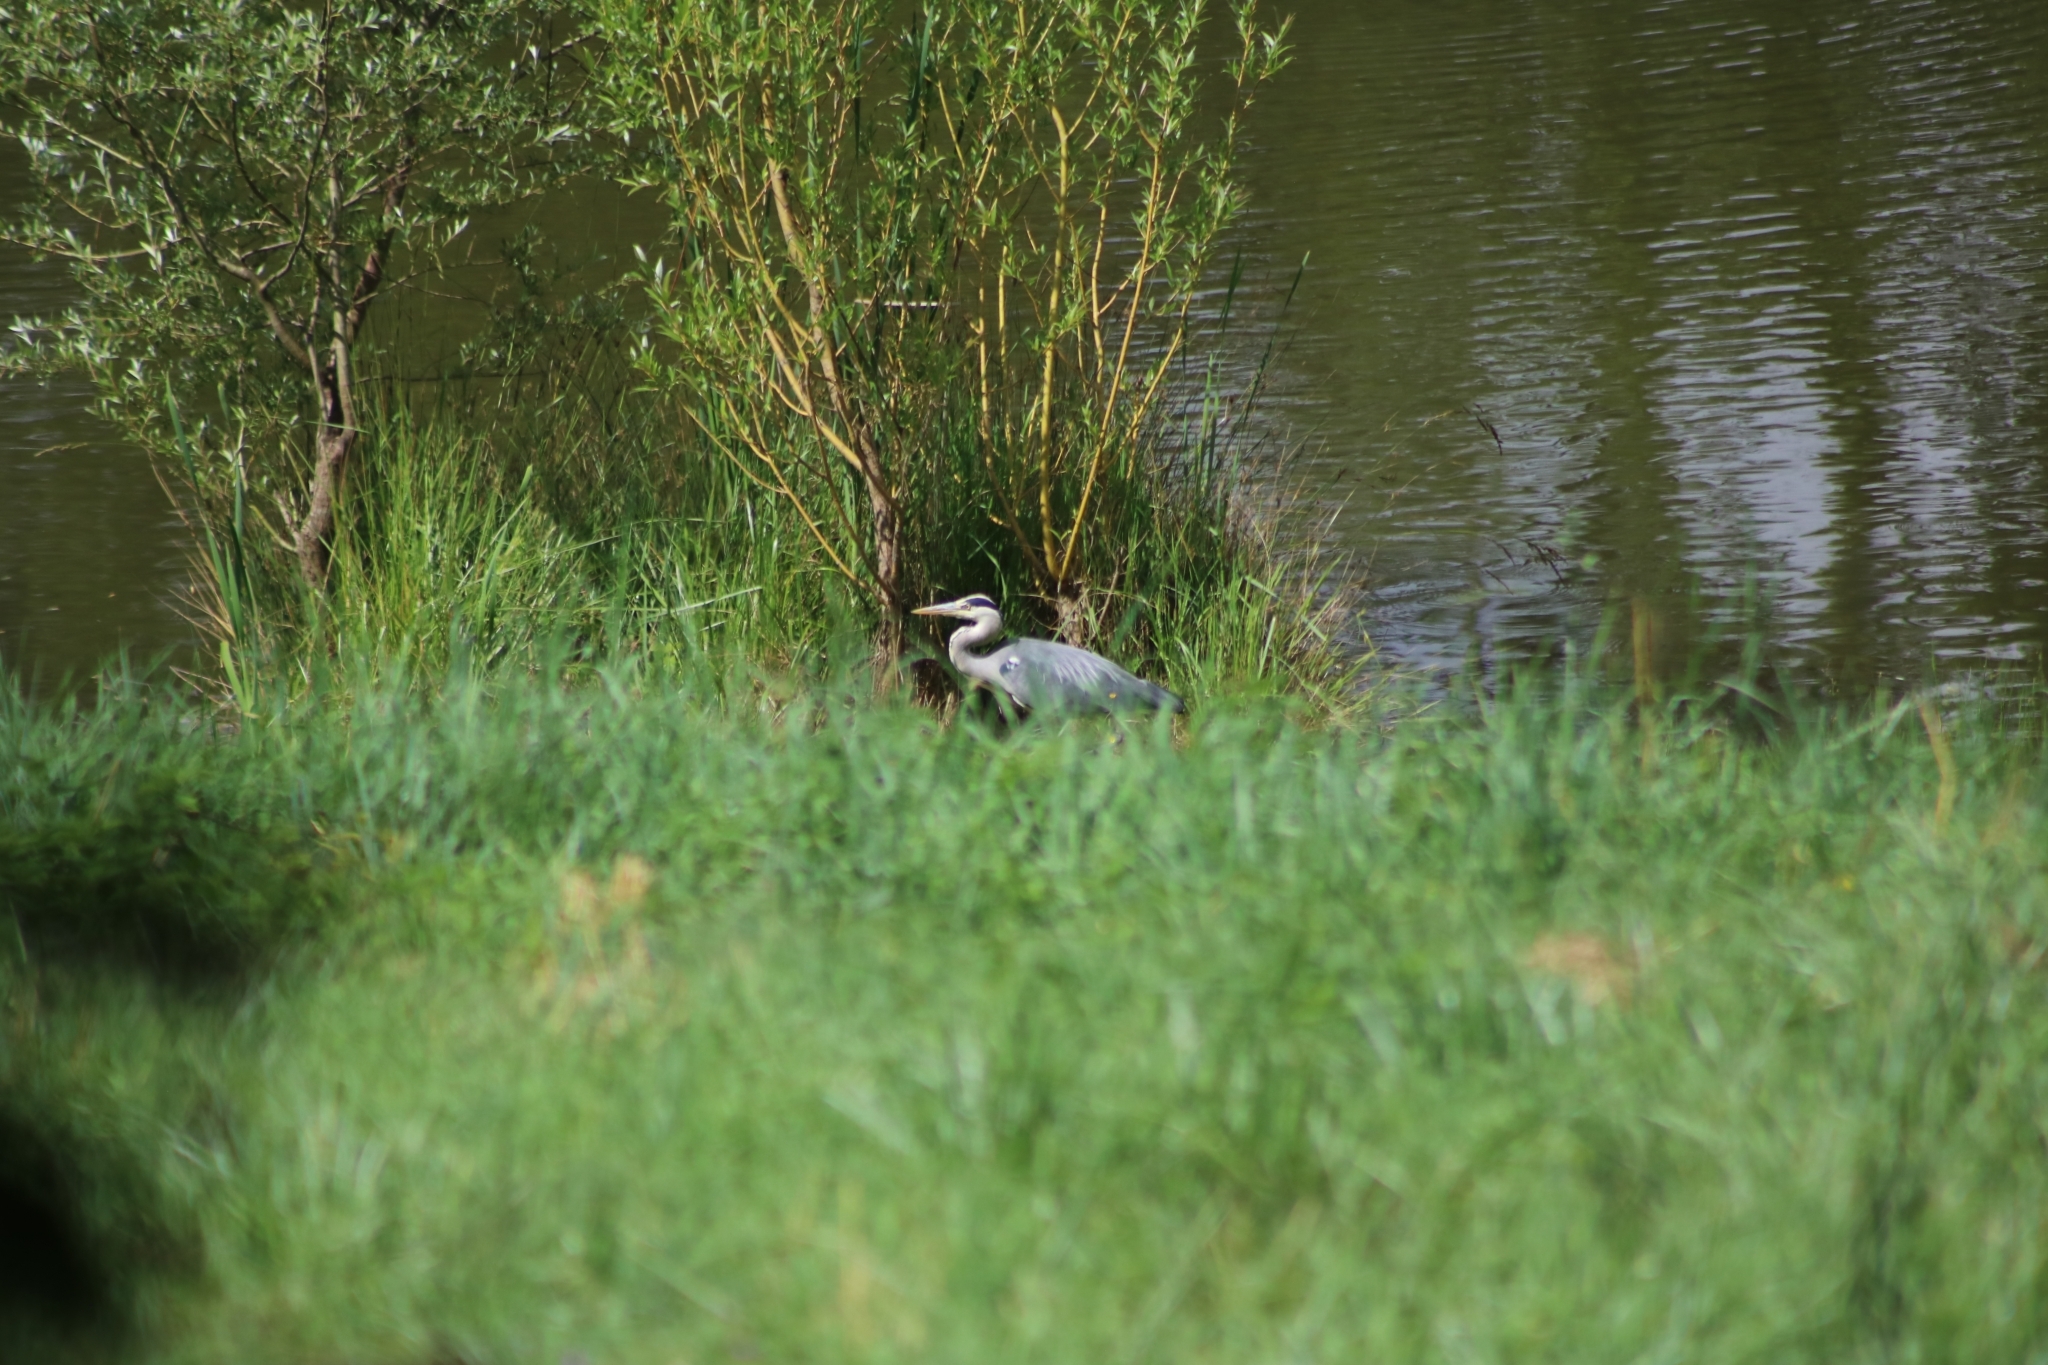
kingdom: Animalia
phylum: Chordata
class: Aves
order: Pelecaniformes
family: Ardeidae
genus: Ardea
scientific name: Ardea cinerea
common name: Grey heron
